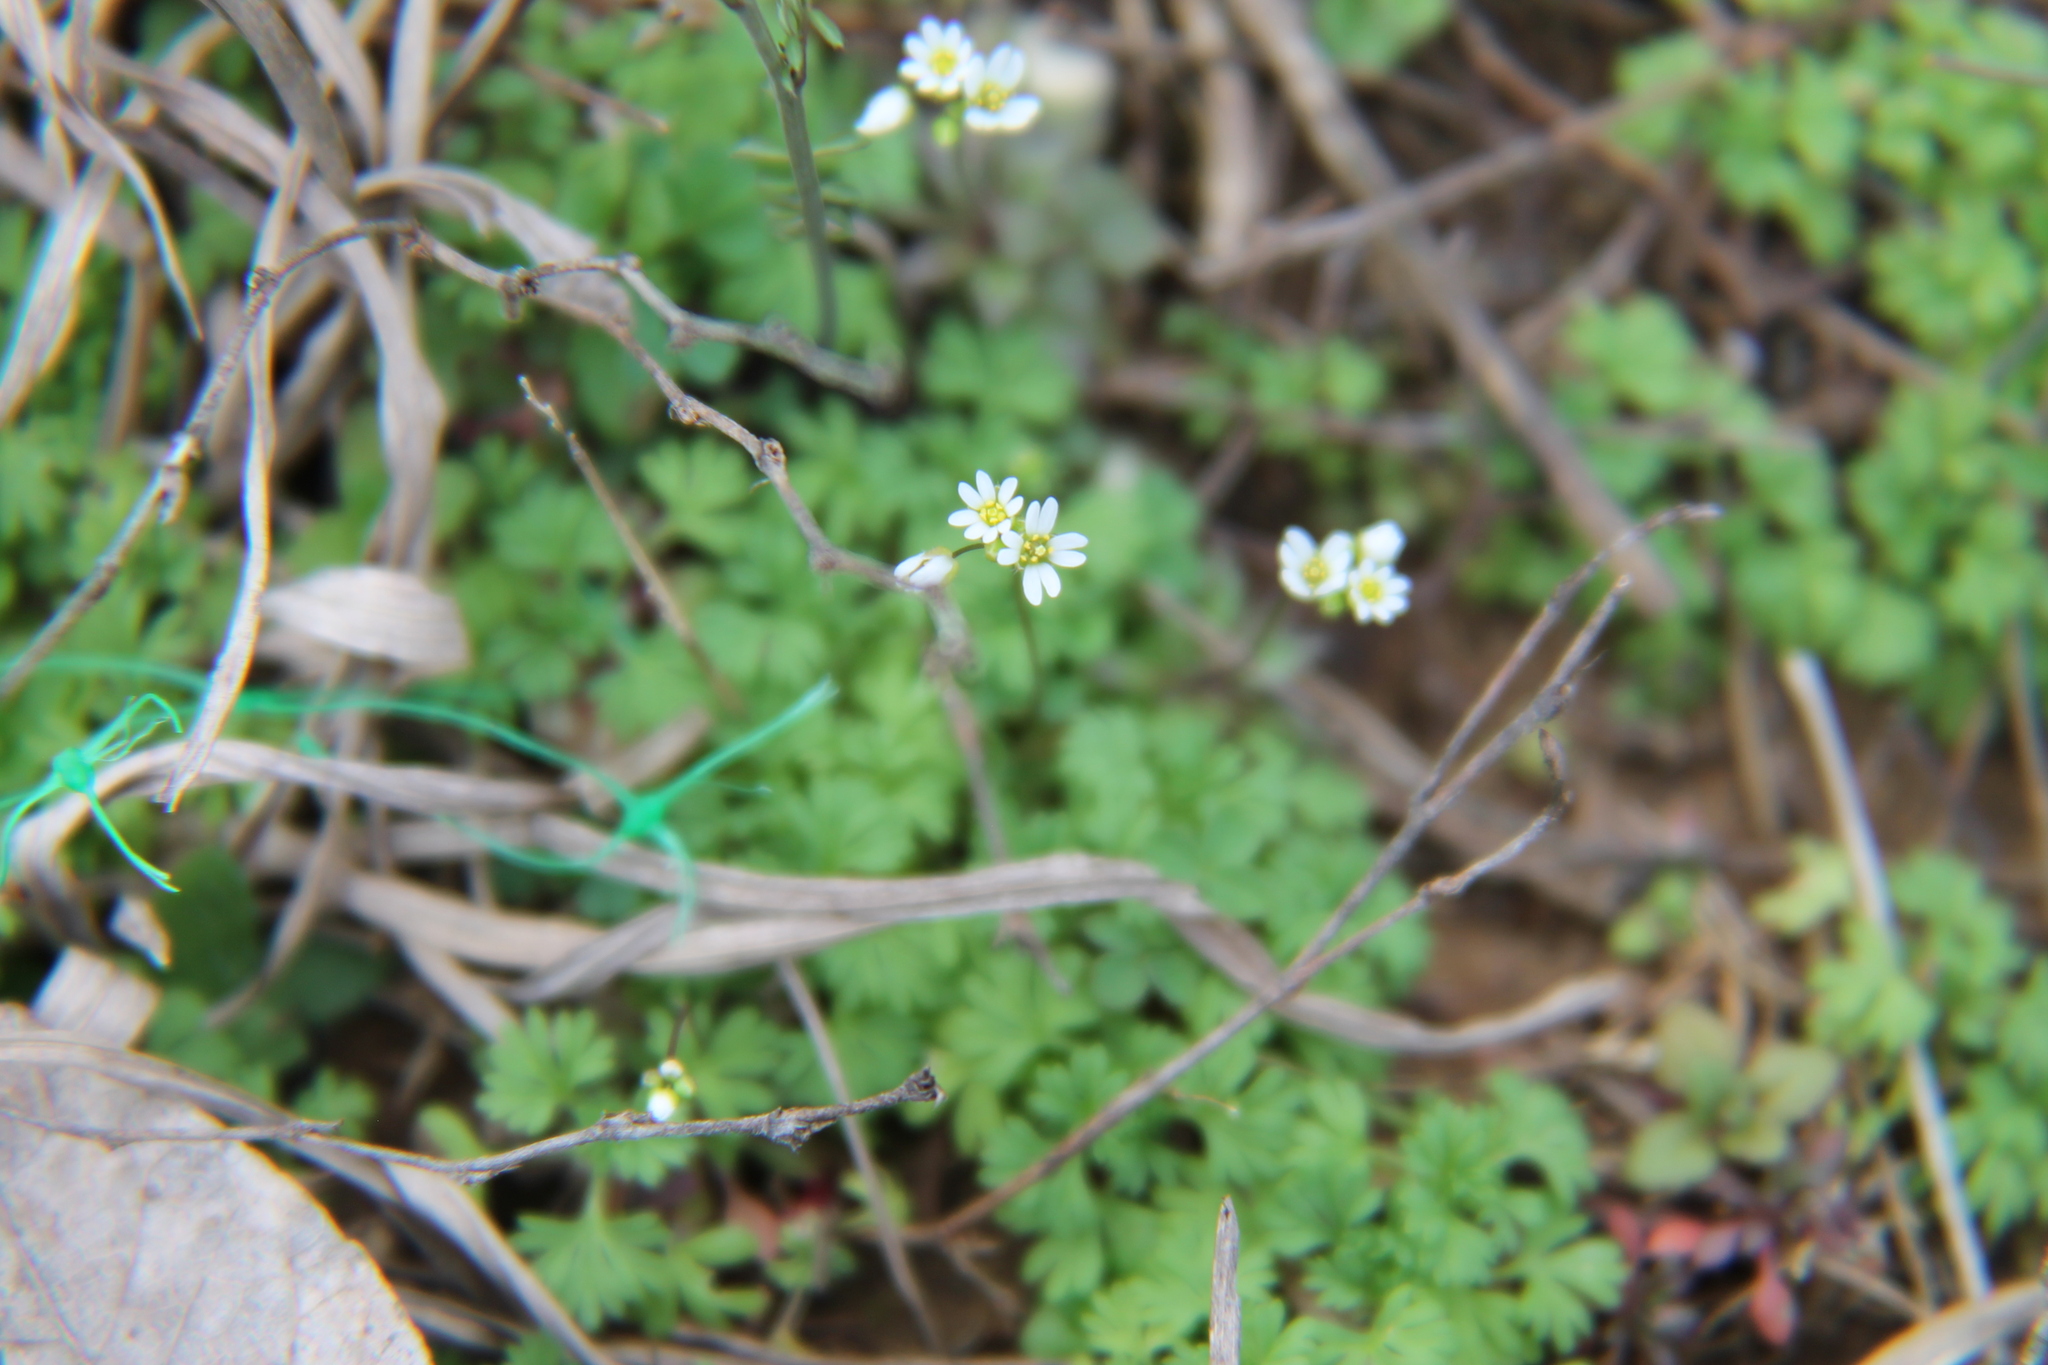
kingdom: Plantae
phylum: Tracheophyta
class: Magnoliopsida
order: Brassicales
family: Brassicaceae
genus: Draba
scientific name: Draba verna
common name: Spring draba
